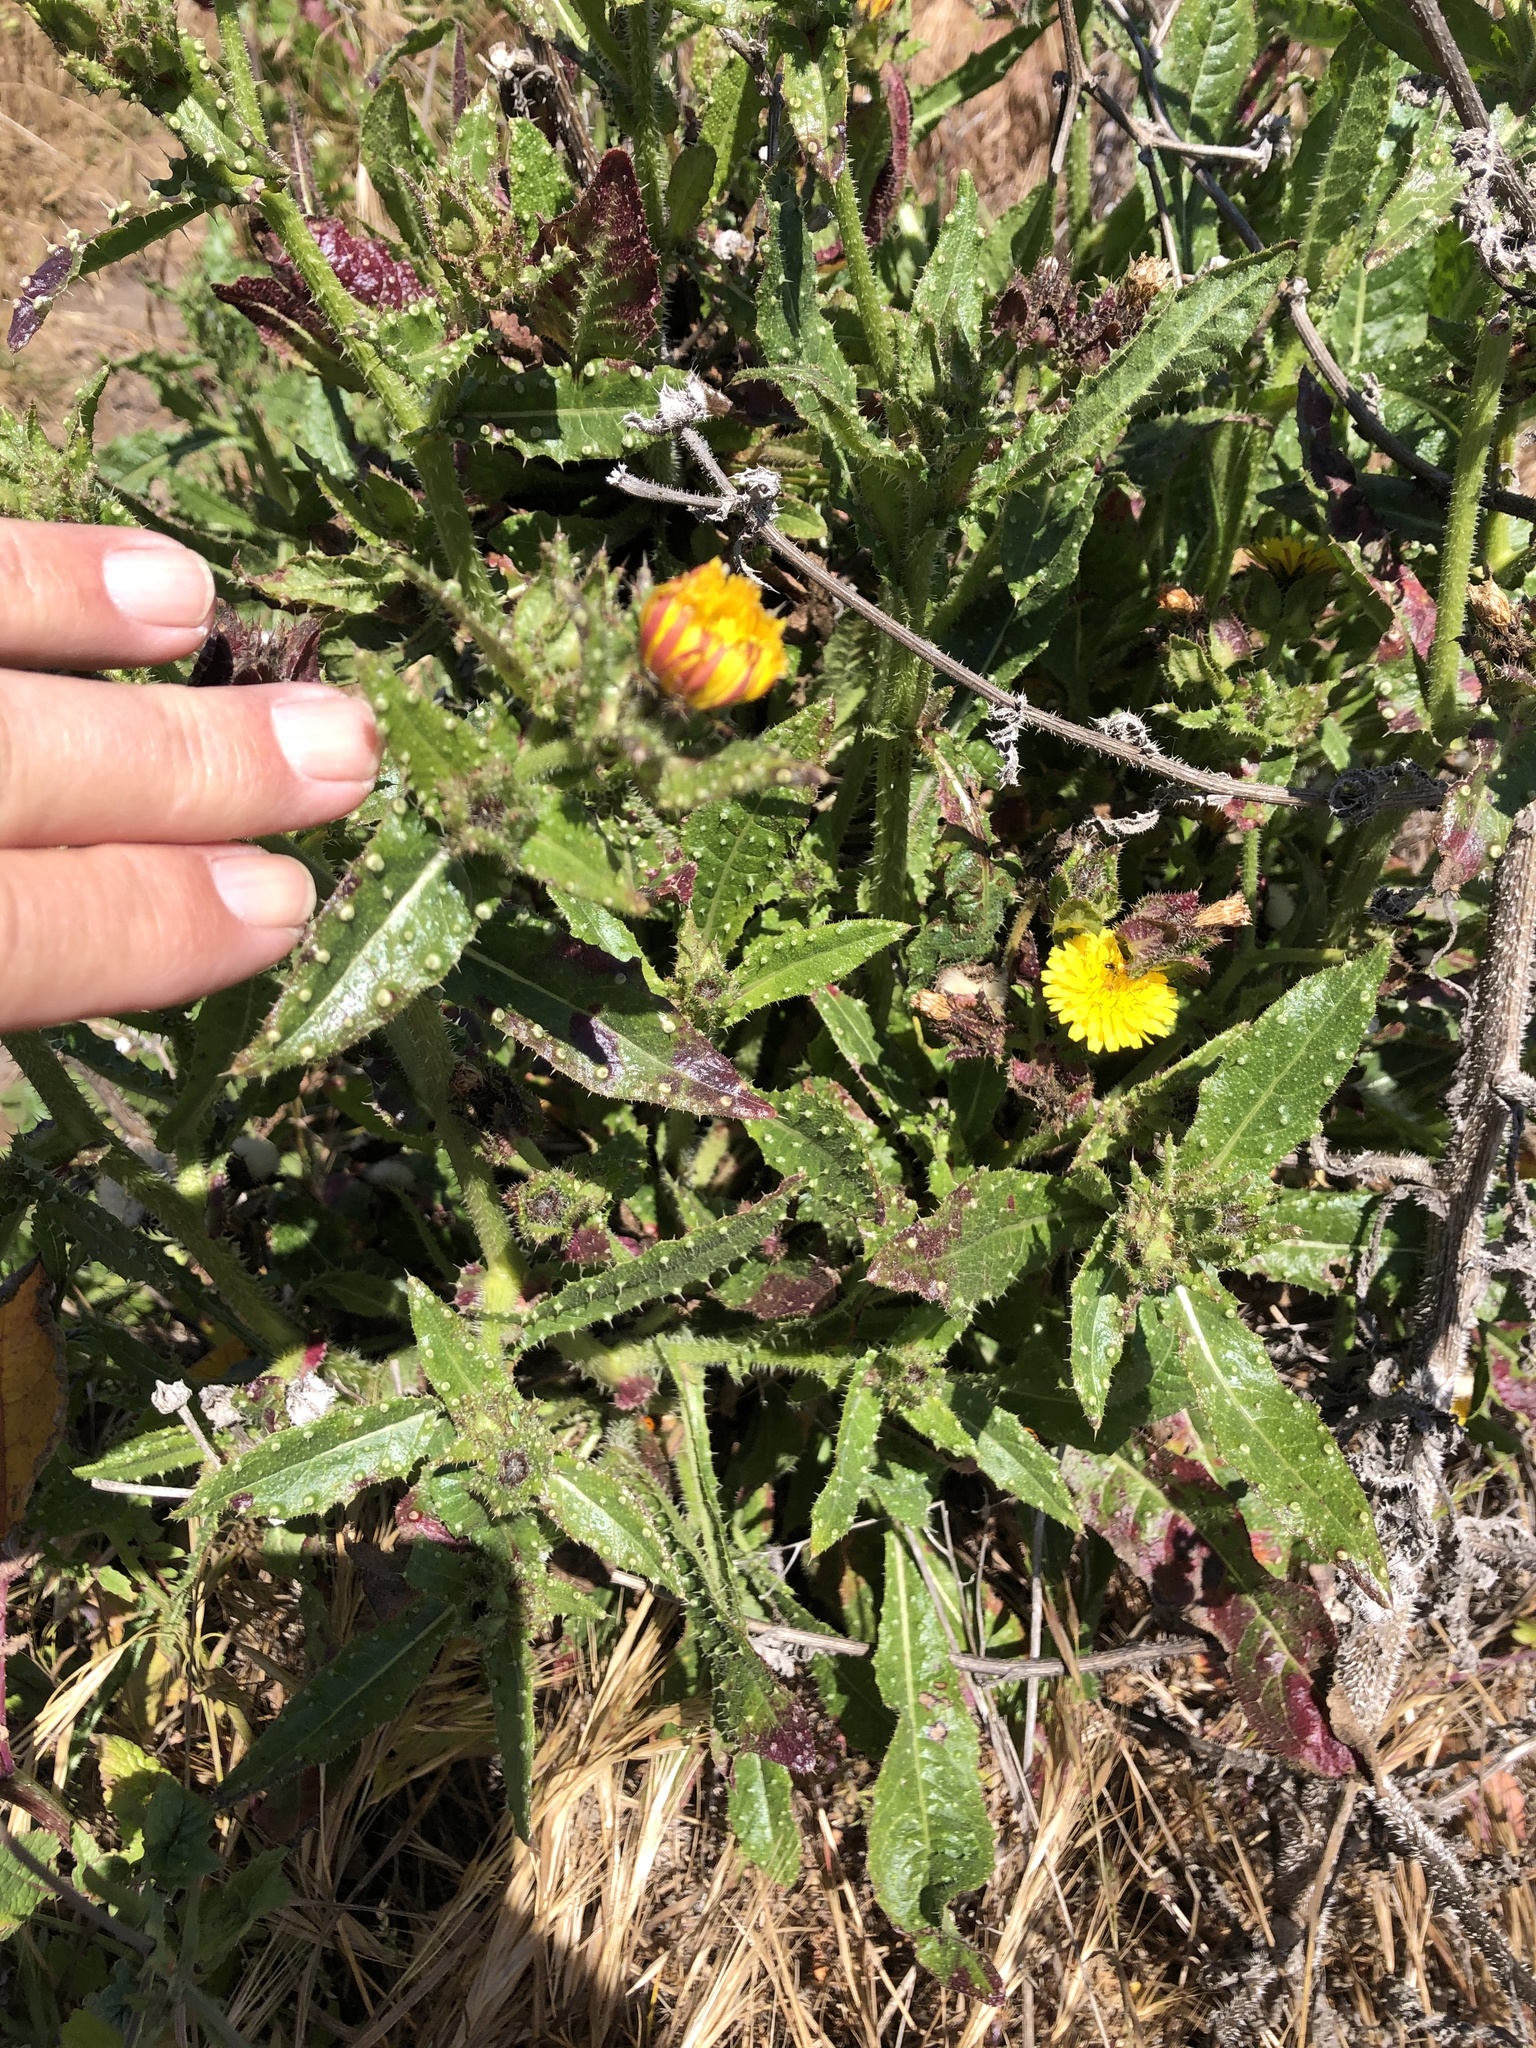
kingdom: Plantae
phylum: Tracheophyta
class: Magnoliopsida
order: Asterales
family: Asteraceae
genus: Helminthotheca
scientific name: Helminthotheca echioides
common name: Ox-tongue
